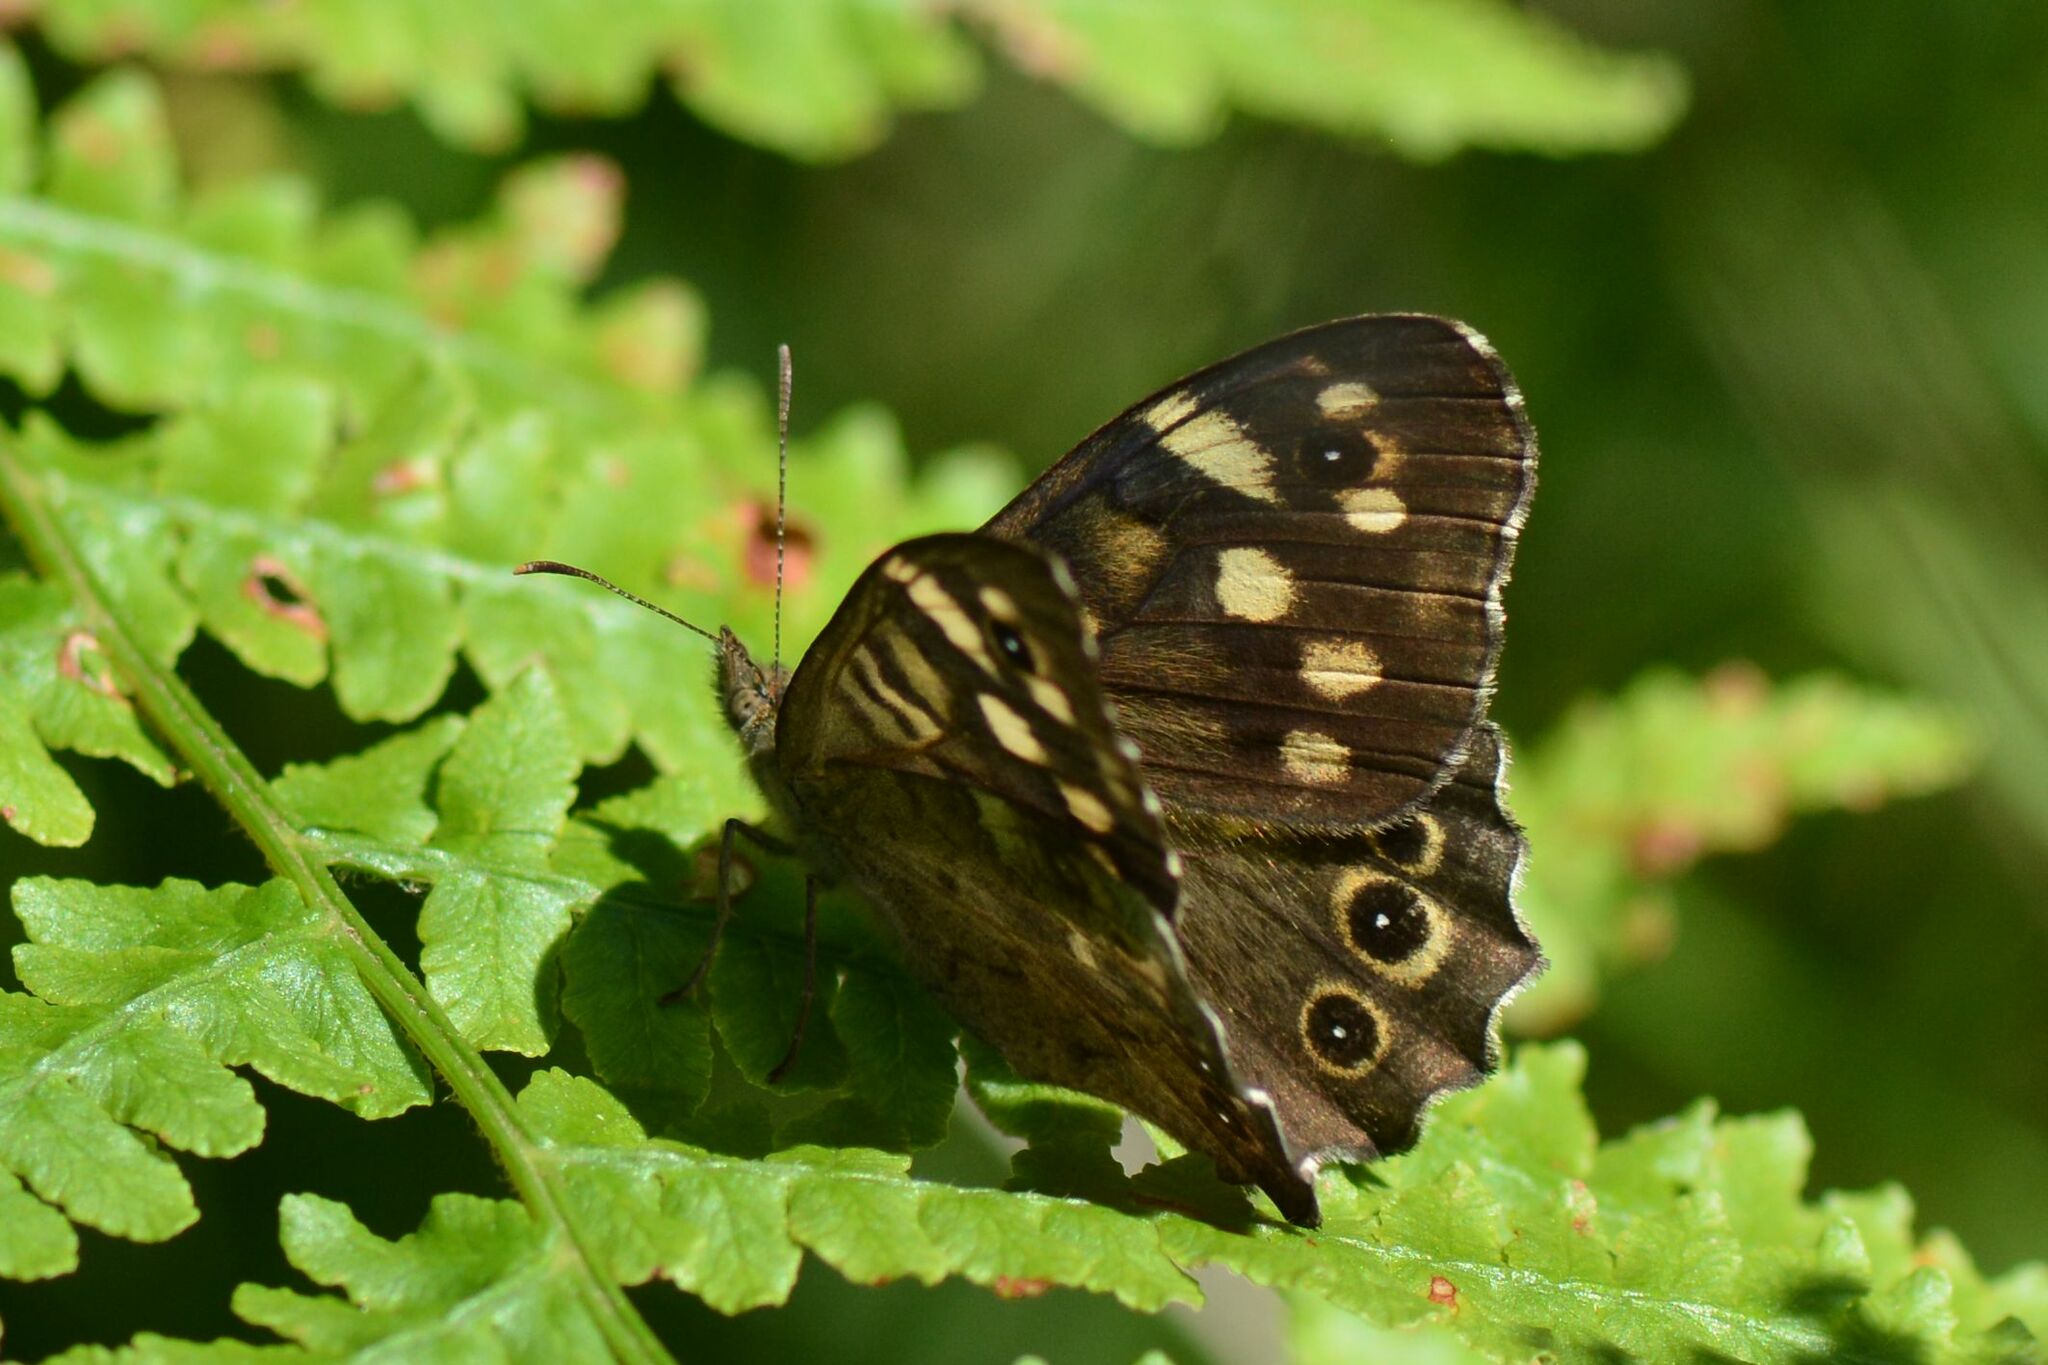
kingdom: Animalia
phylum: Arthropoda
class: Insecta
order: Lepidoptera
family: Nymphalidae
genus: Pararge
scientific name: Pararge aegeria
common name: Speckled wood
